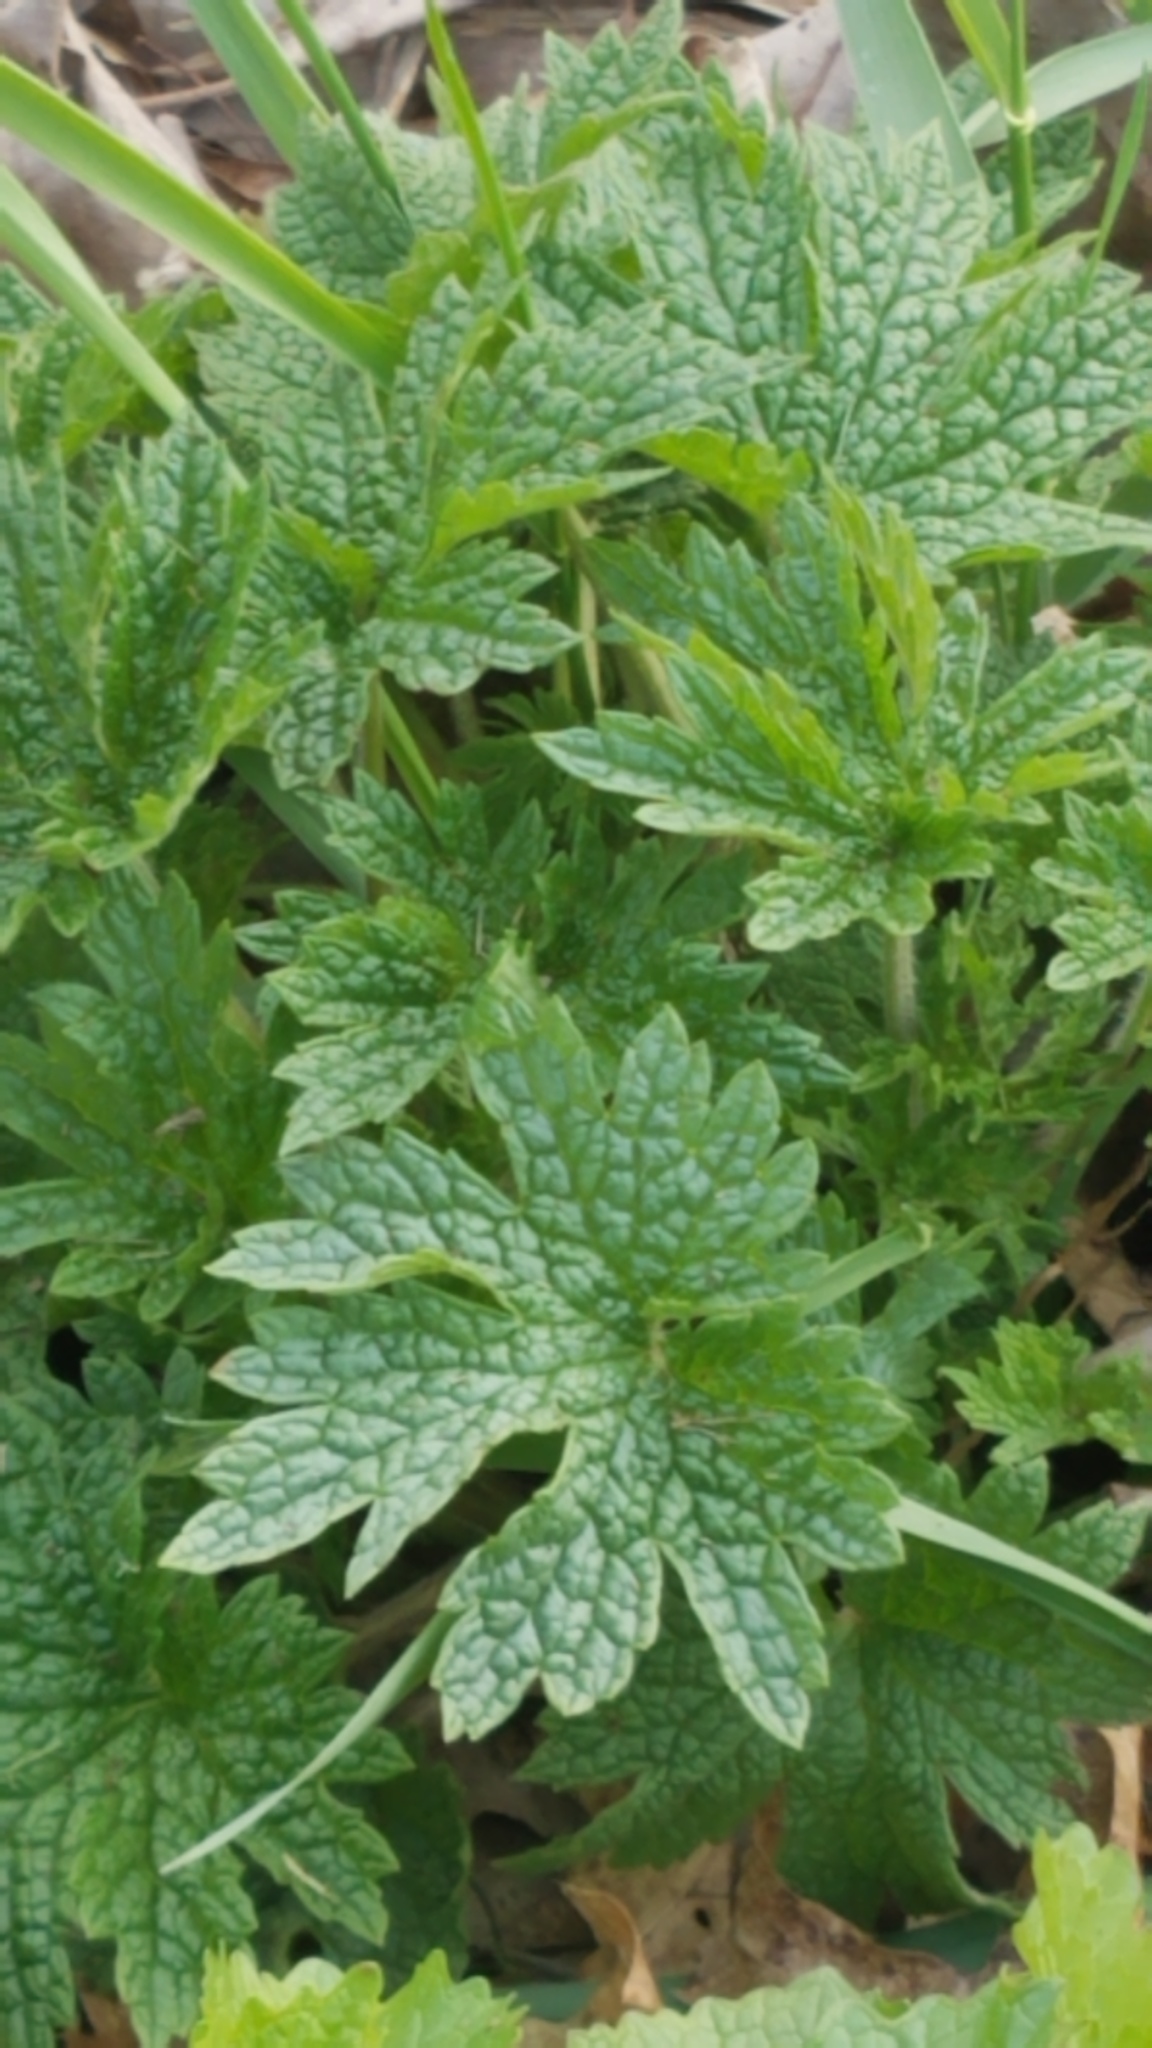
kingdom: Plantae
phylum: Tracheophyta
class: Magnoliopsida
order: Lamiales
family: Lamiaceae
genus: Leonurus
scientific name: Leonurus cardiaca
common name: Motherwort
